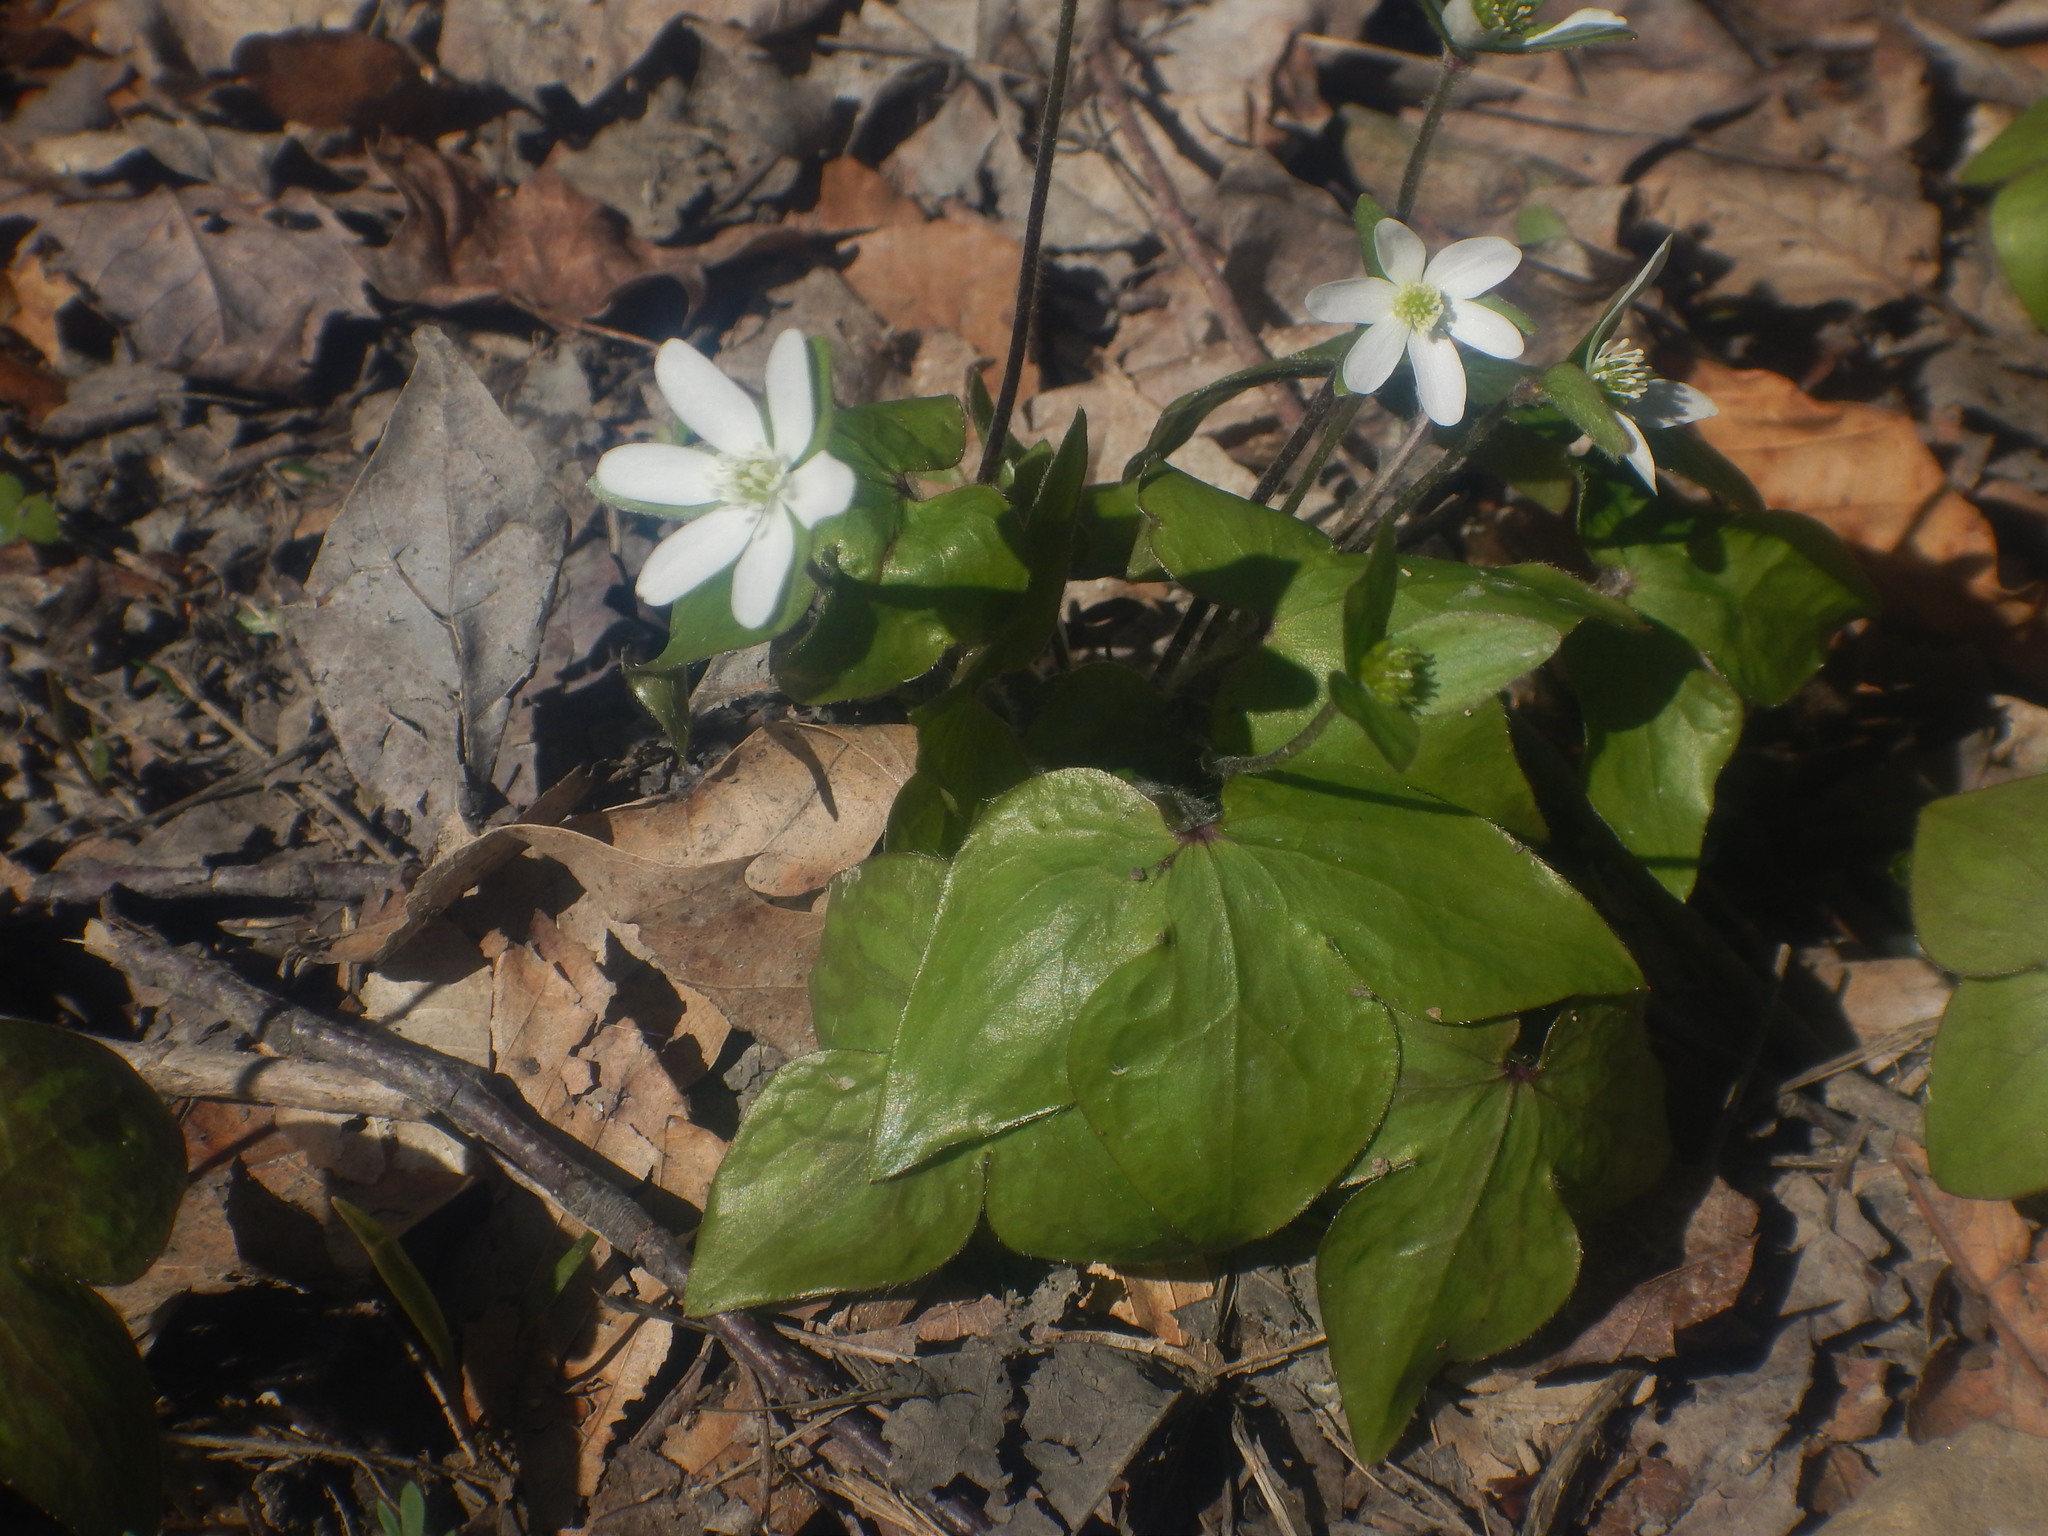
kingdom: Plantae
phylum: Tracheophyta
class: Magnoliopsida
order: Ranunculales
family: Ranunculaceae
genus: Hepatica
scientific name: Hepatica acutiloba
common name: Sharp-lobed hepatica
